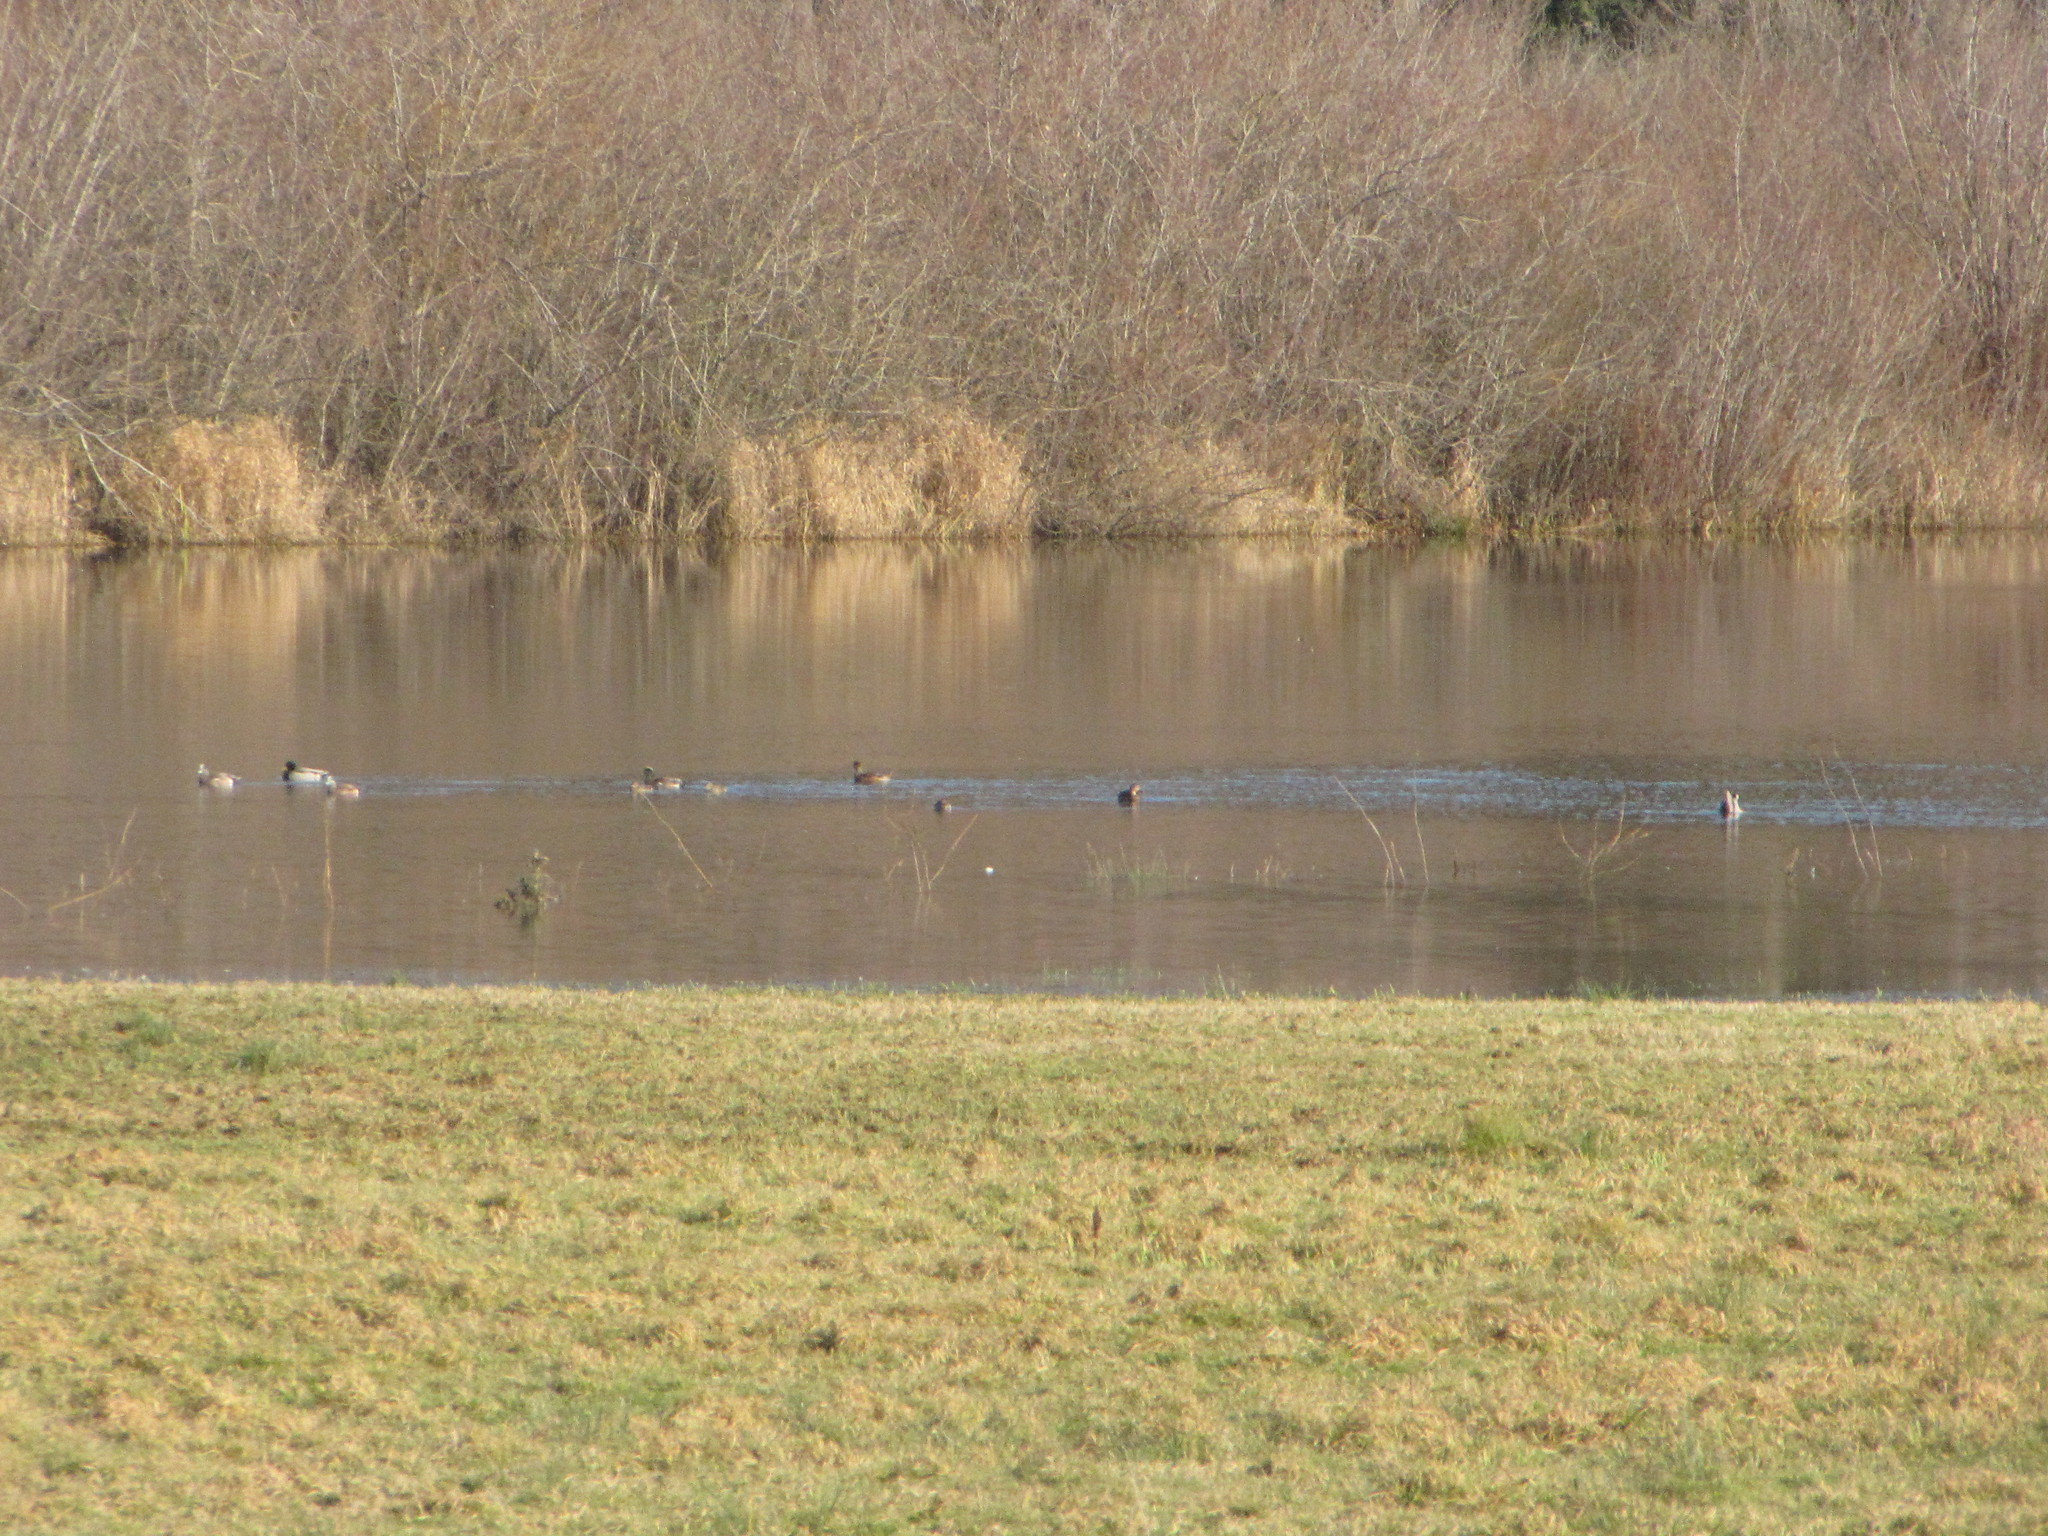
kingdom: Animalia
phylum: Chordata
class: Aves
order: Anseriformes
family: Anatidae
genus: Mareca
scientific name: Mareca americana
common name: American wigeon
